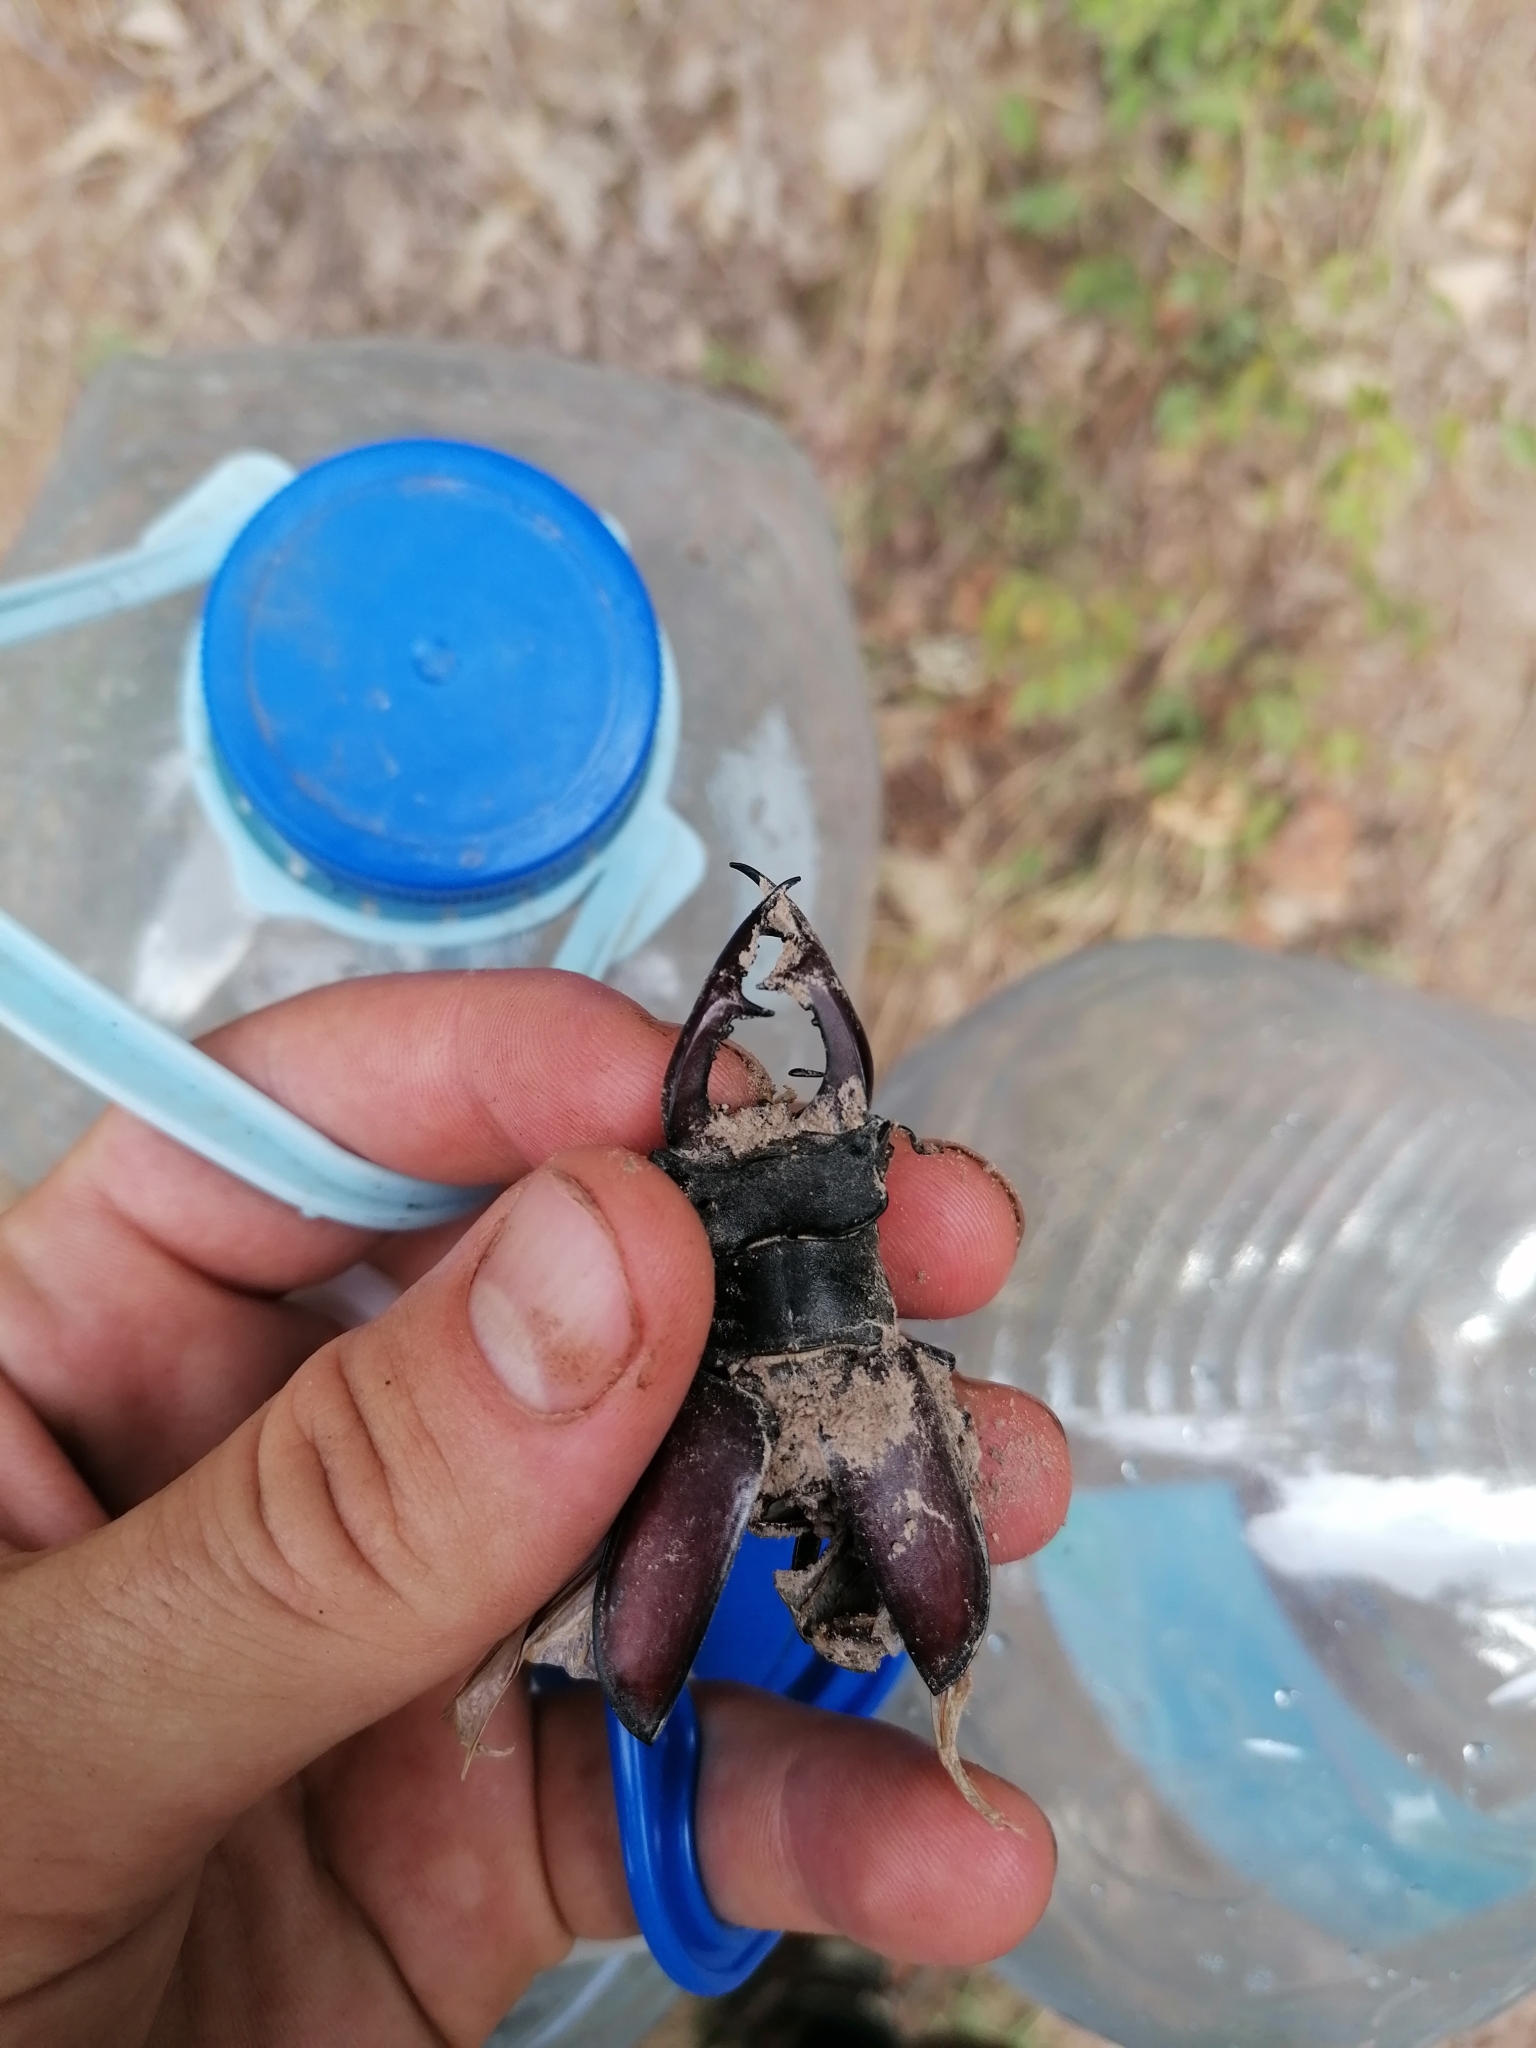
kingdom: Animalia
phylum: Arthropoda
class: Insecta
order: Coleoptera
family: Lucanidae
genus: Lucanus
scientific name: Lucanus cervus
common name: Stag beetle
